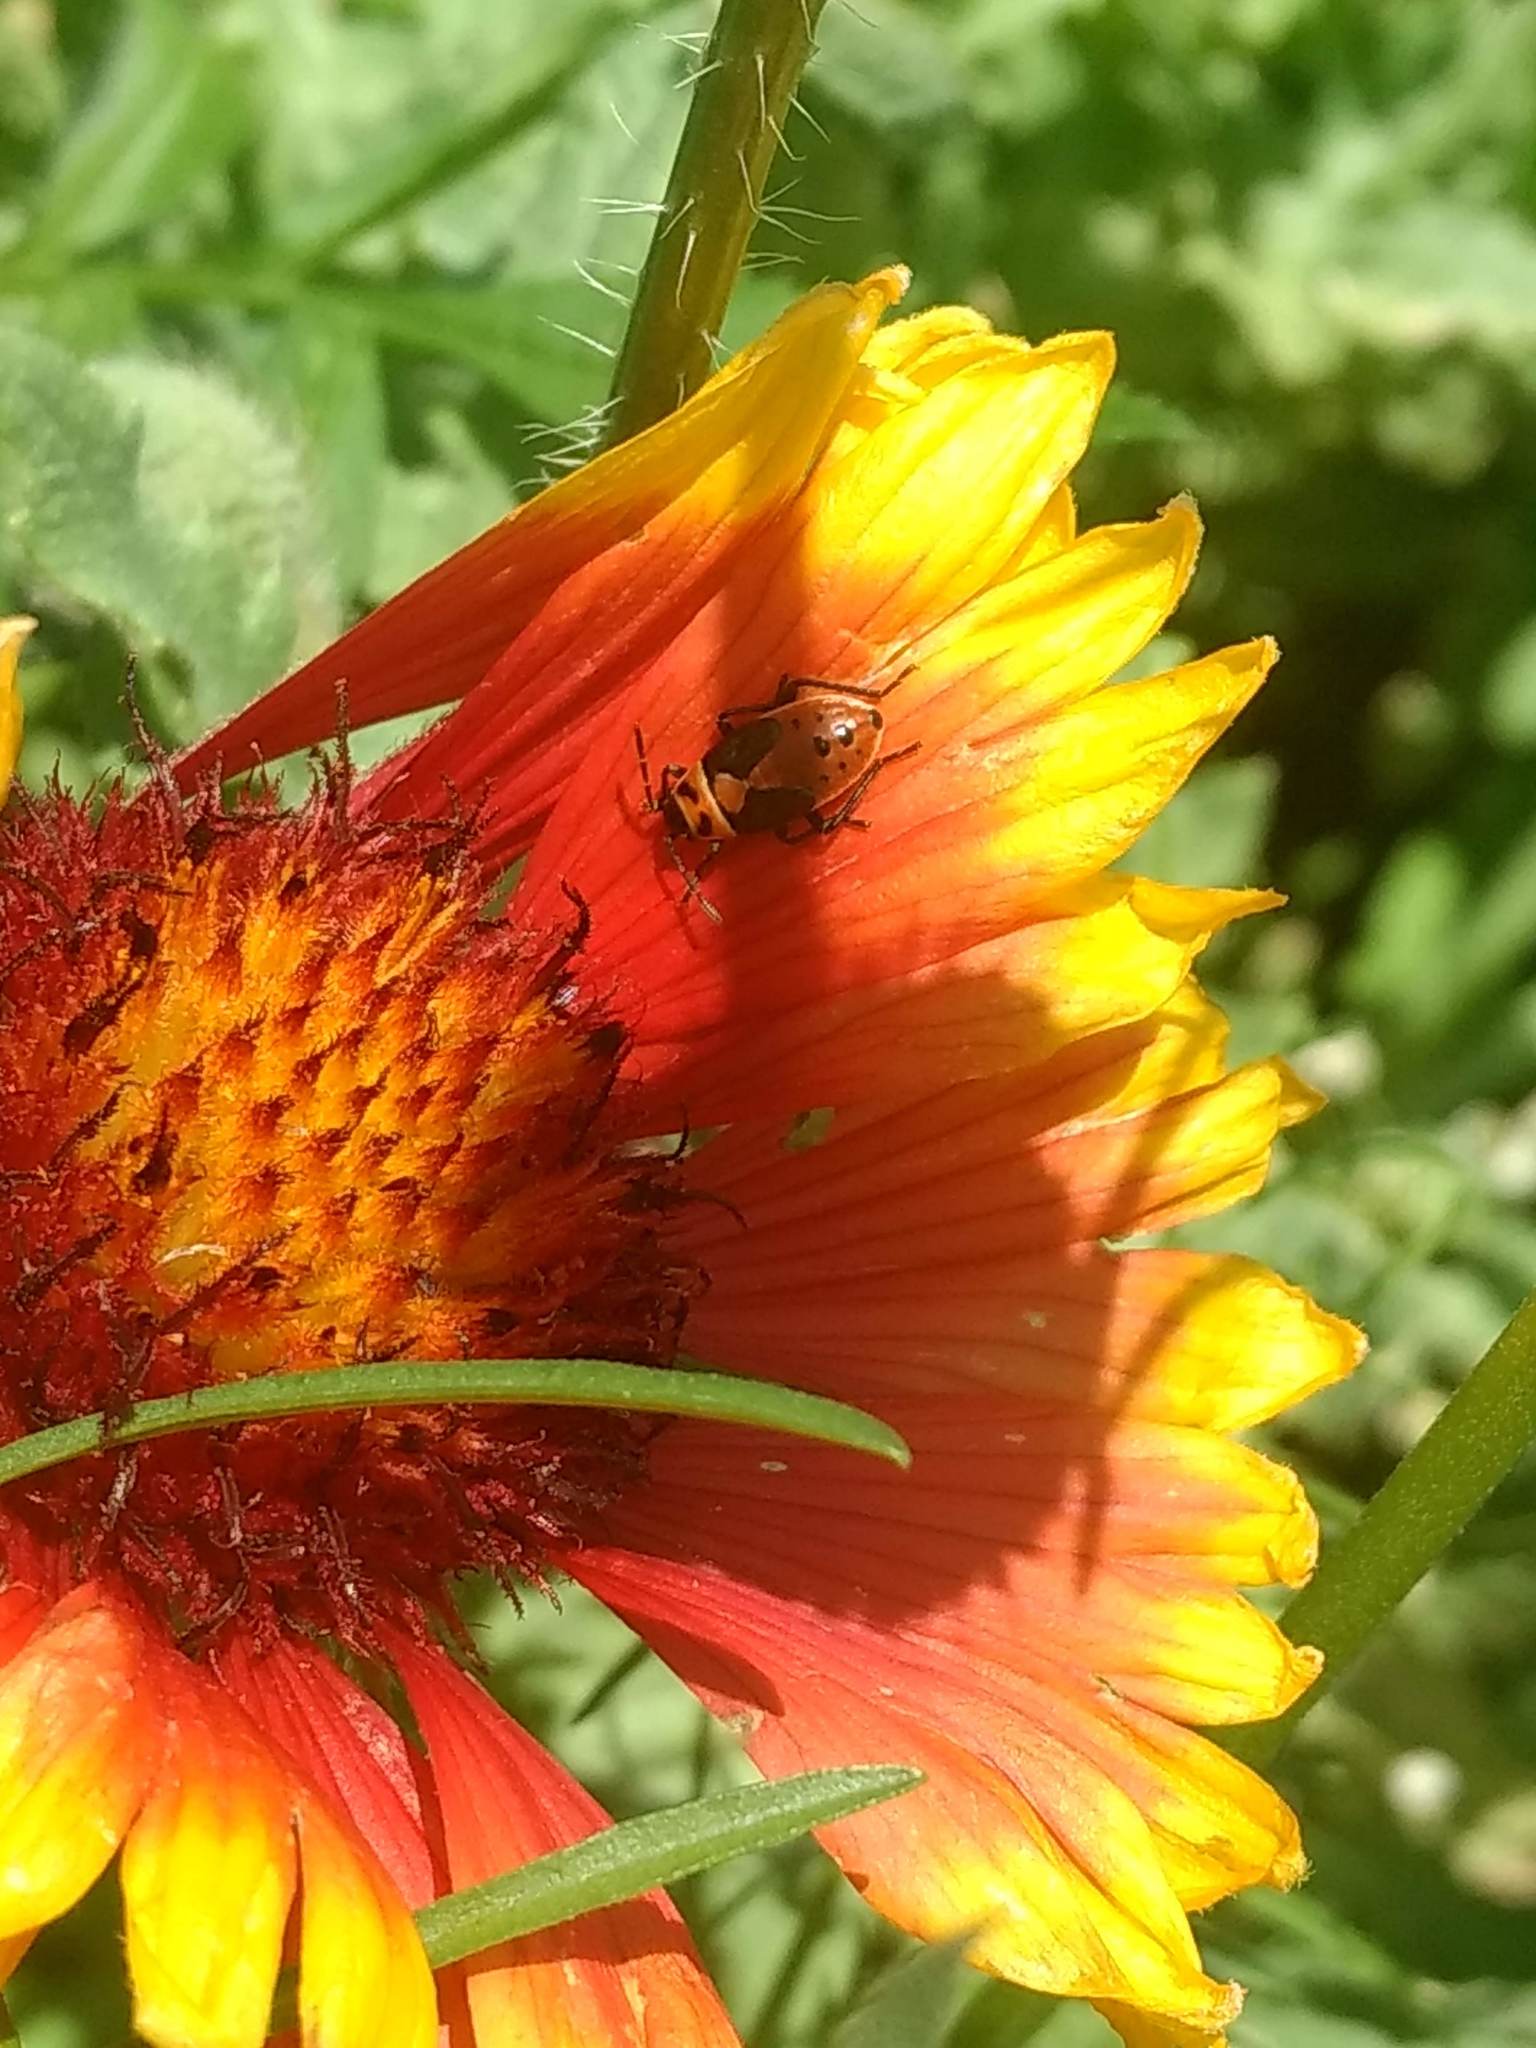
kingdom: Animalia
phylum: Arthropoda
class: Insecta
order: Hemiptera
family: Lygaeidae
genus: Lygaeus
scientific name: Lygaeus kalmii
